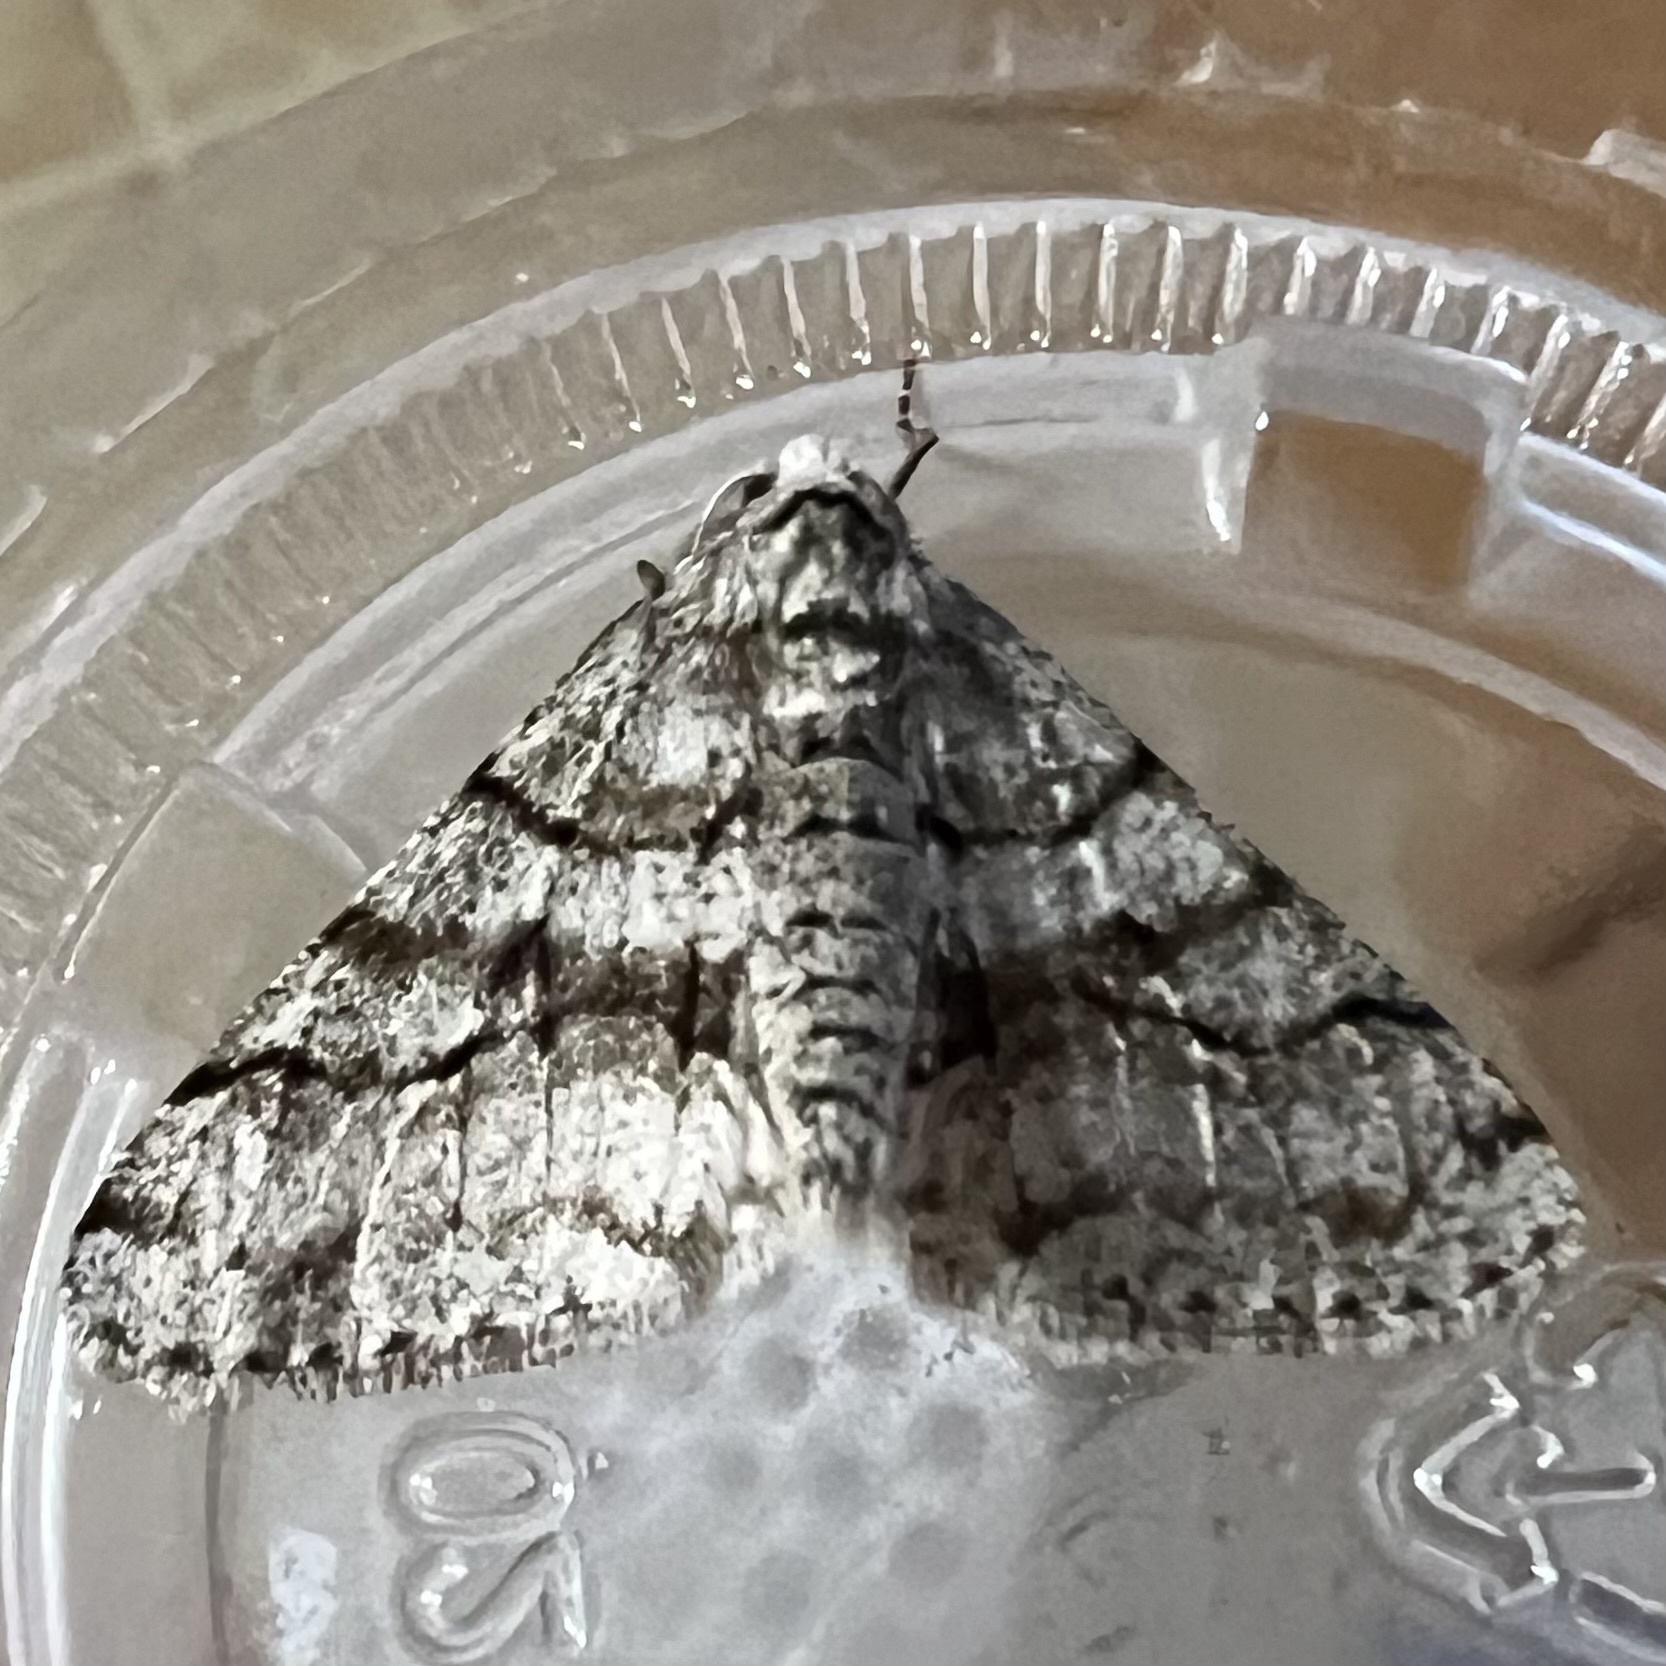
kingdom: Animalia
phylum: Arthropoda
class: Insecta
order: Lepidoptera
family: Geometridae
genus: Phigalia
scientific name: Phigalia titea
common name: Spiny looper
